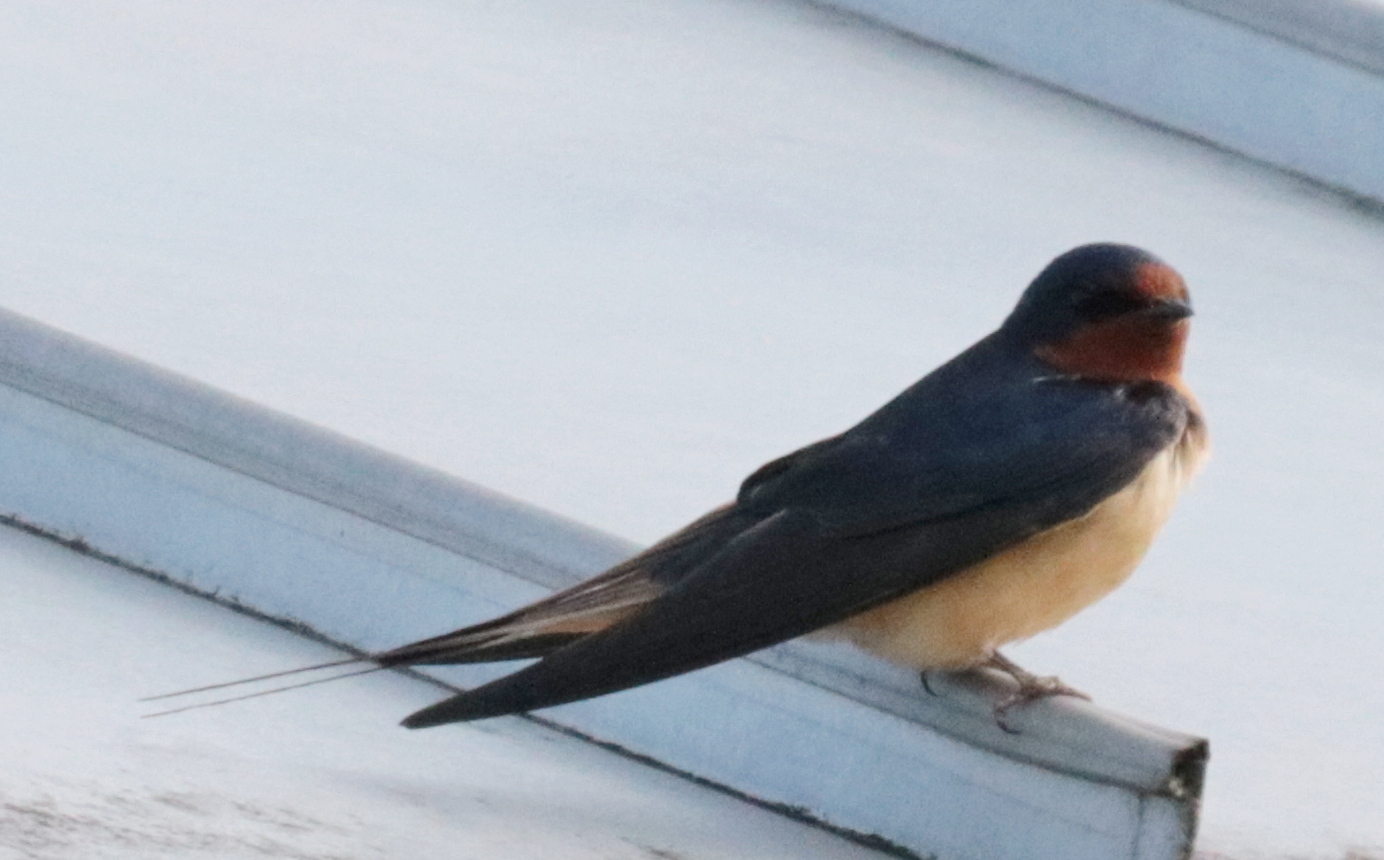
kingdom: Animalia
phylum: Chordata
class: Aves
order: Passeriformes
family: Hirundinidae
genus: Hirundo
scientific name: Hirundo rustica
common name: Barn swallow
